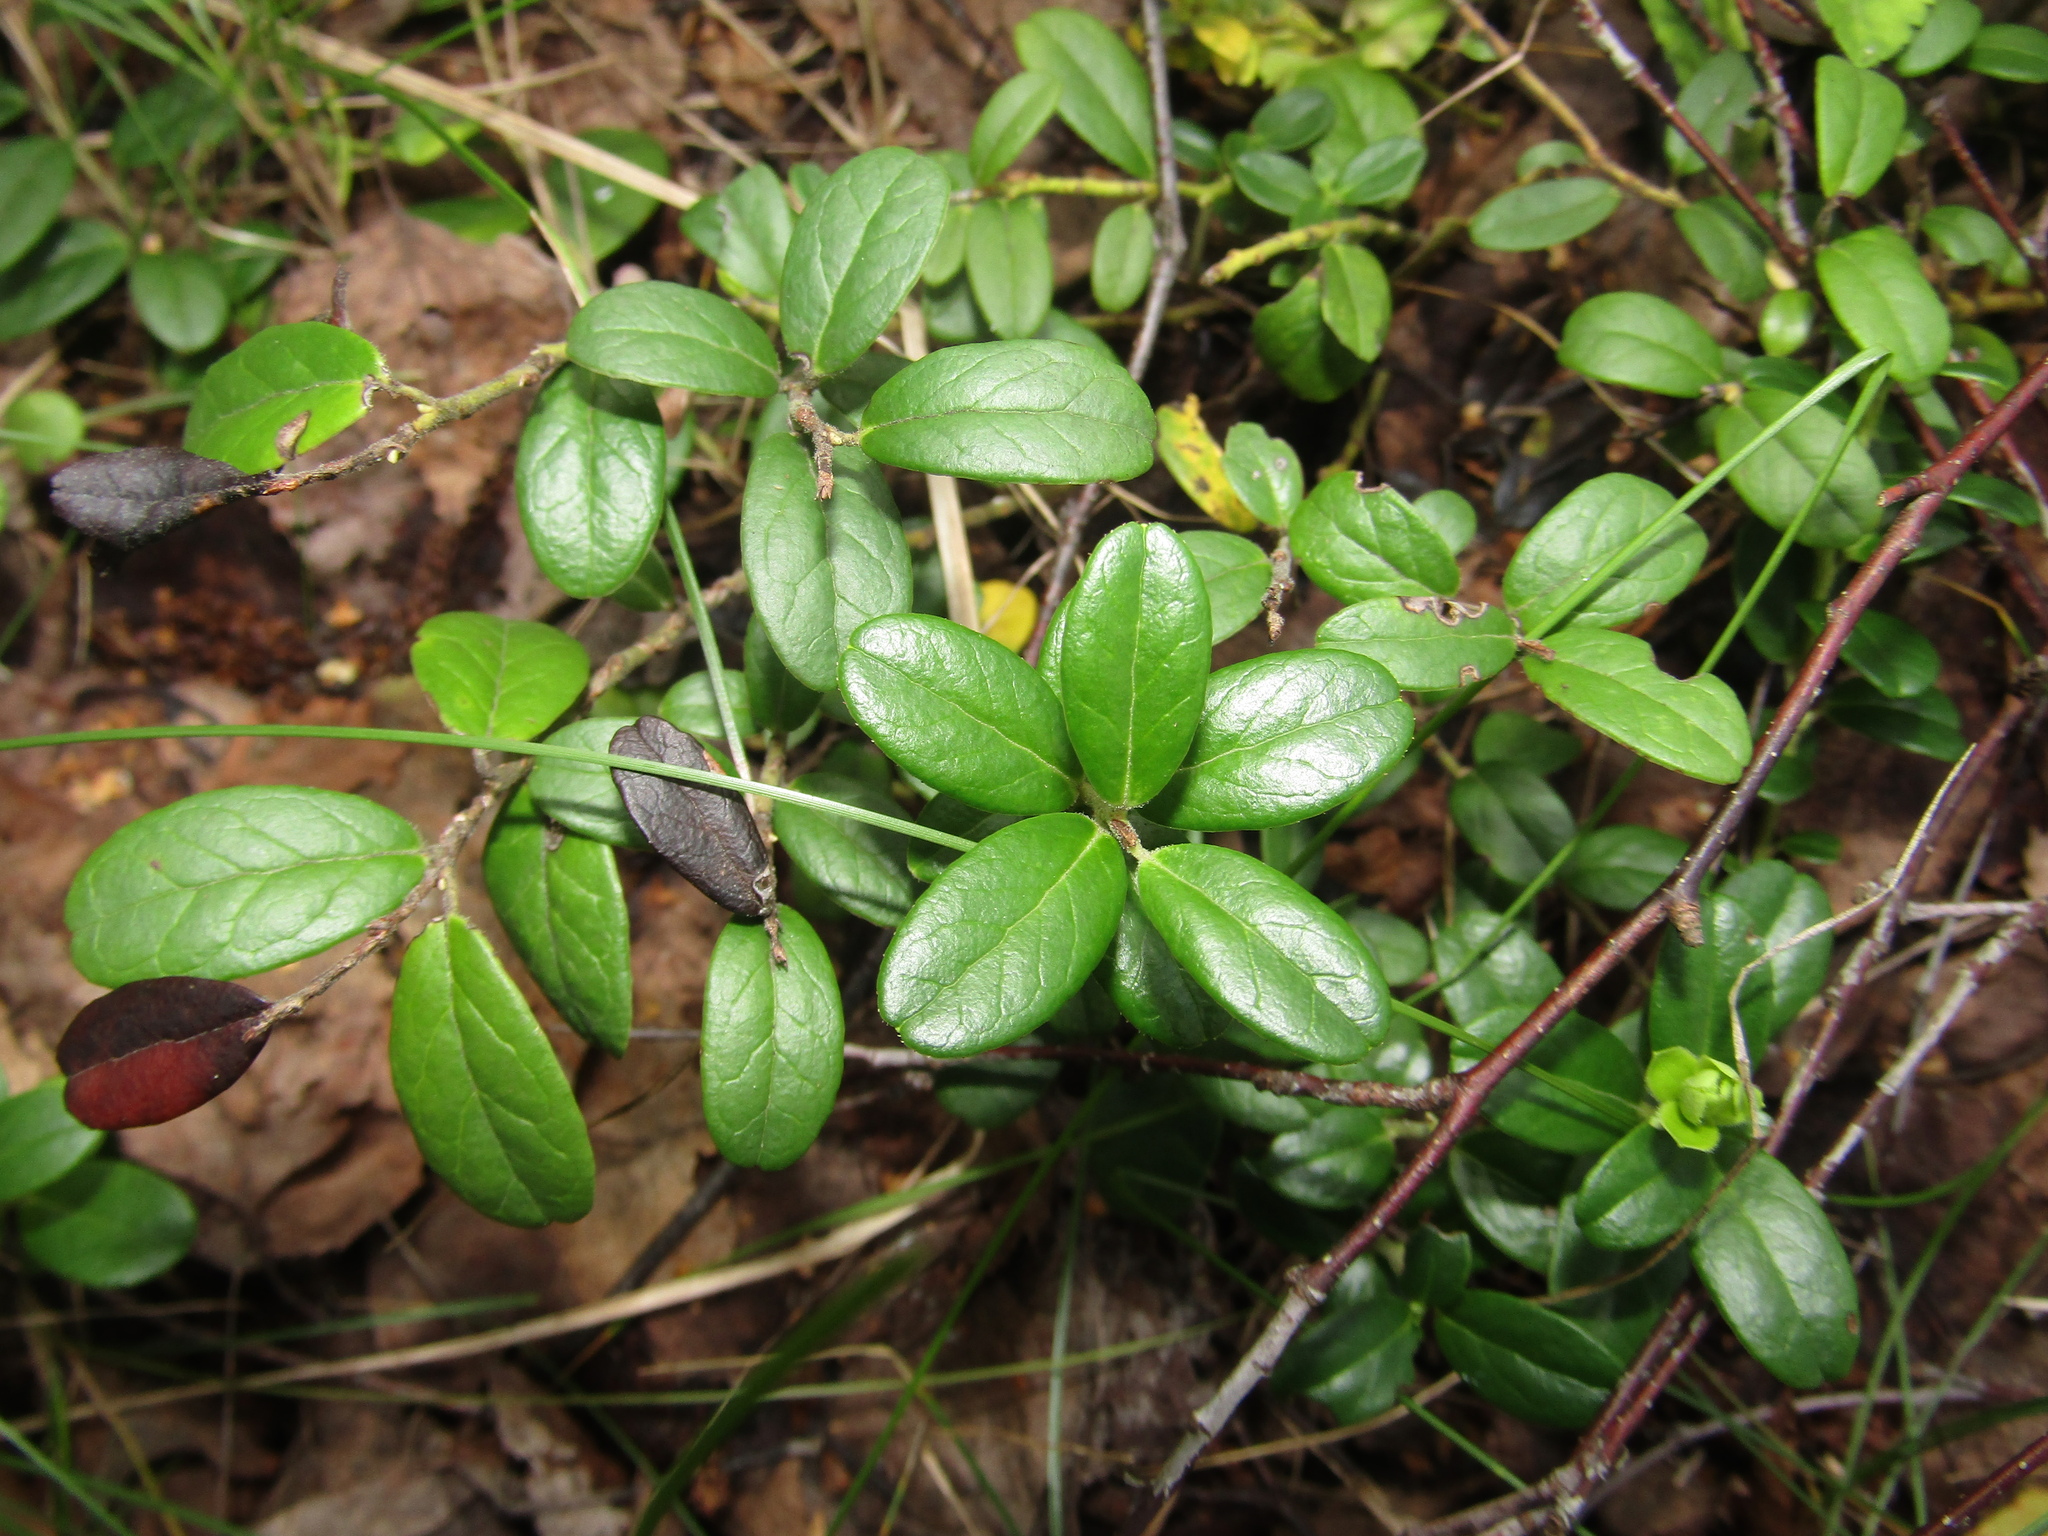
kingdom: Plantae
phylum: Tracheophyta
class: Magnoliopsida
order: Ericales
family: Ericaceae
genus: Vaccinium
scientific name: Vaccinium vitis-idaea
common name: Cowberry
